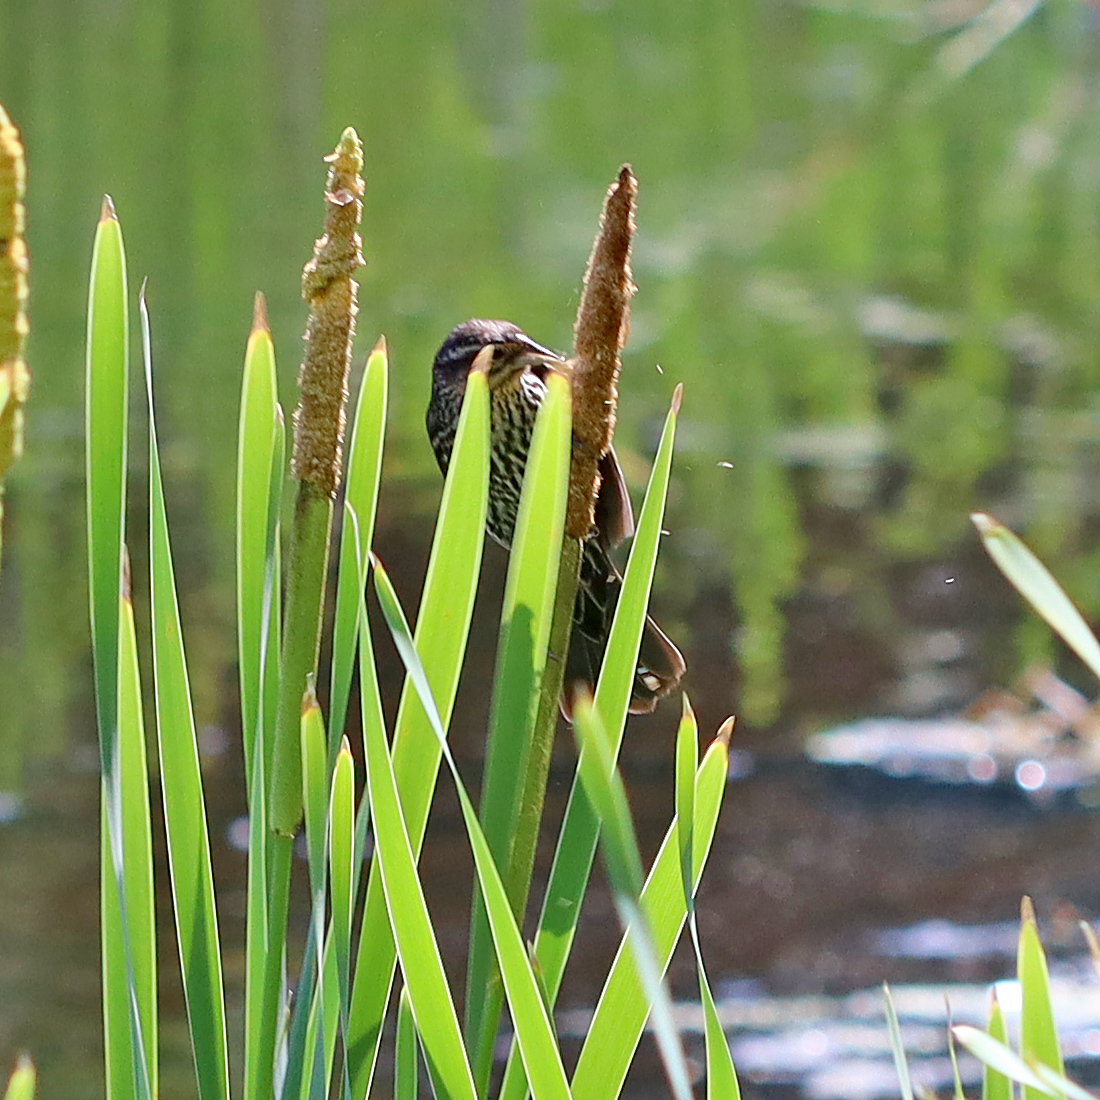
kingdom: Animalia
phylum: Chordata
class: Aves
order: Passeriformes
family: Icteridae
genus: Agelaius
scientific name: Agelaius phoeniceus
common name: Red-winged blackbird
